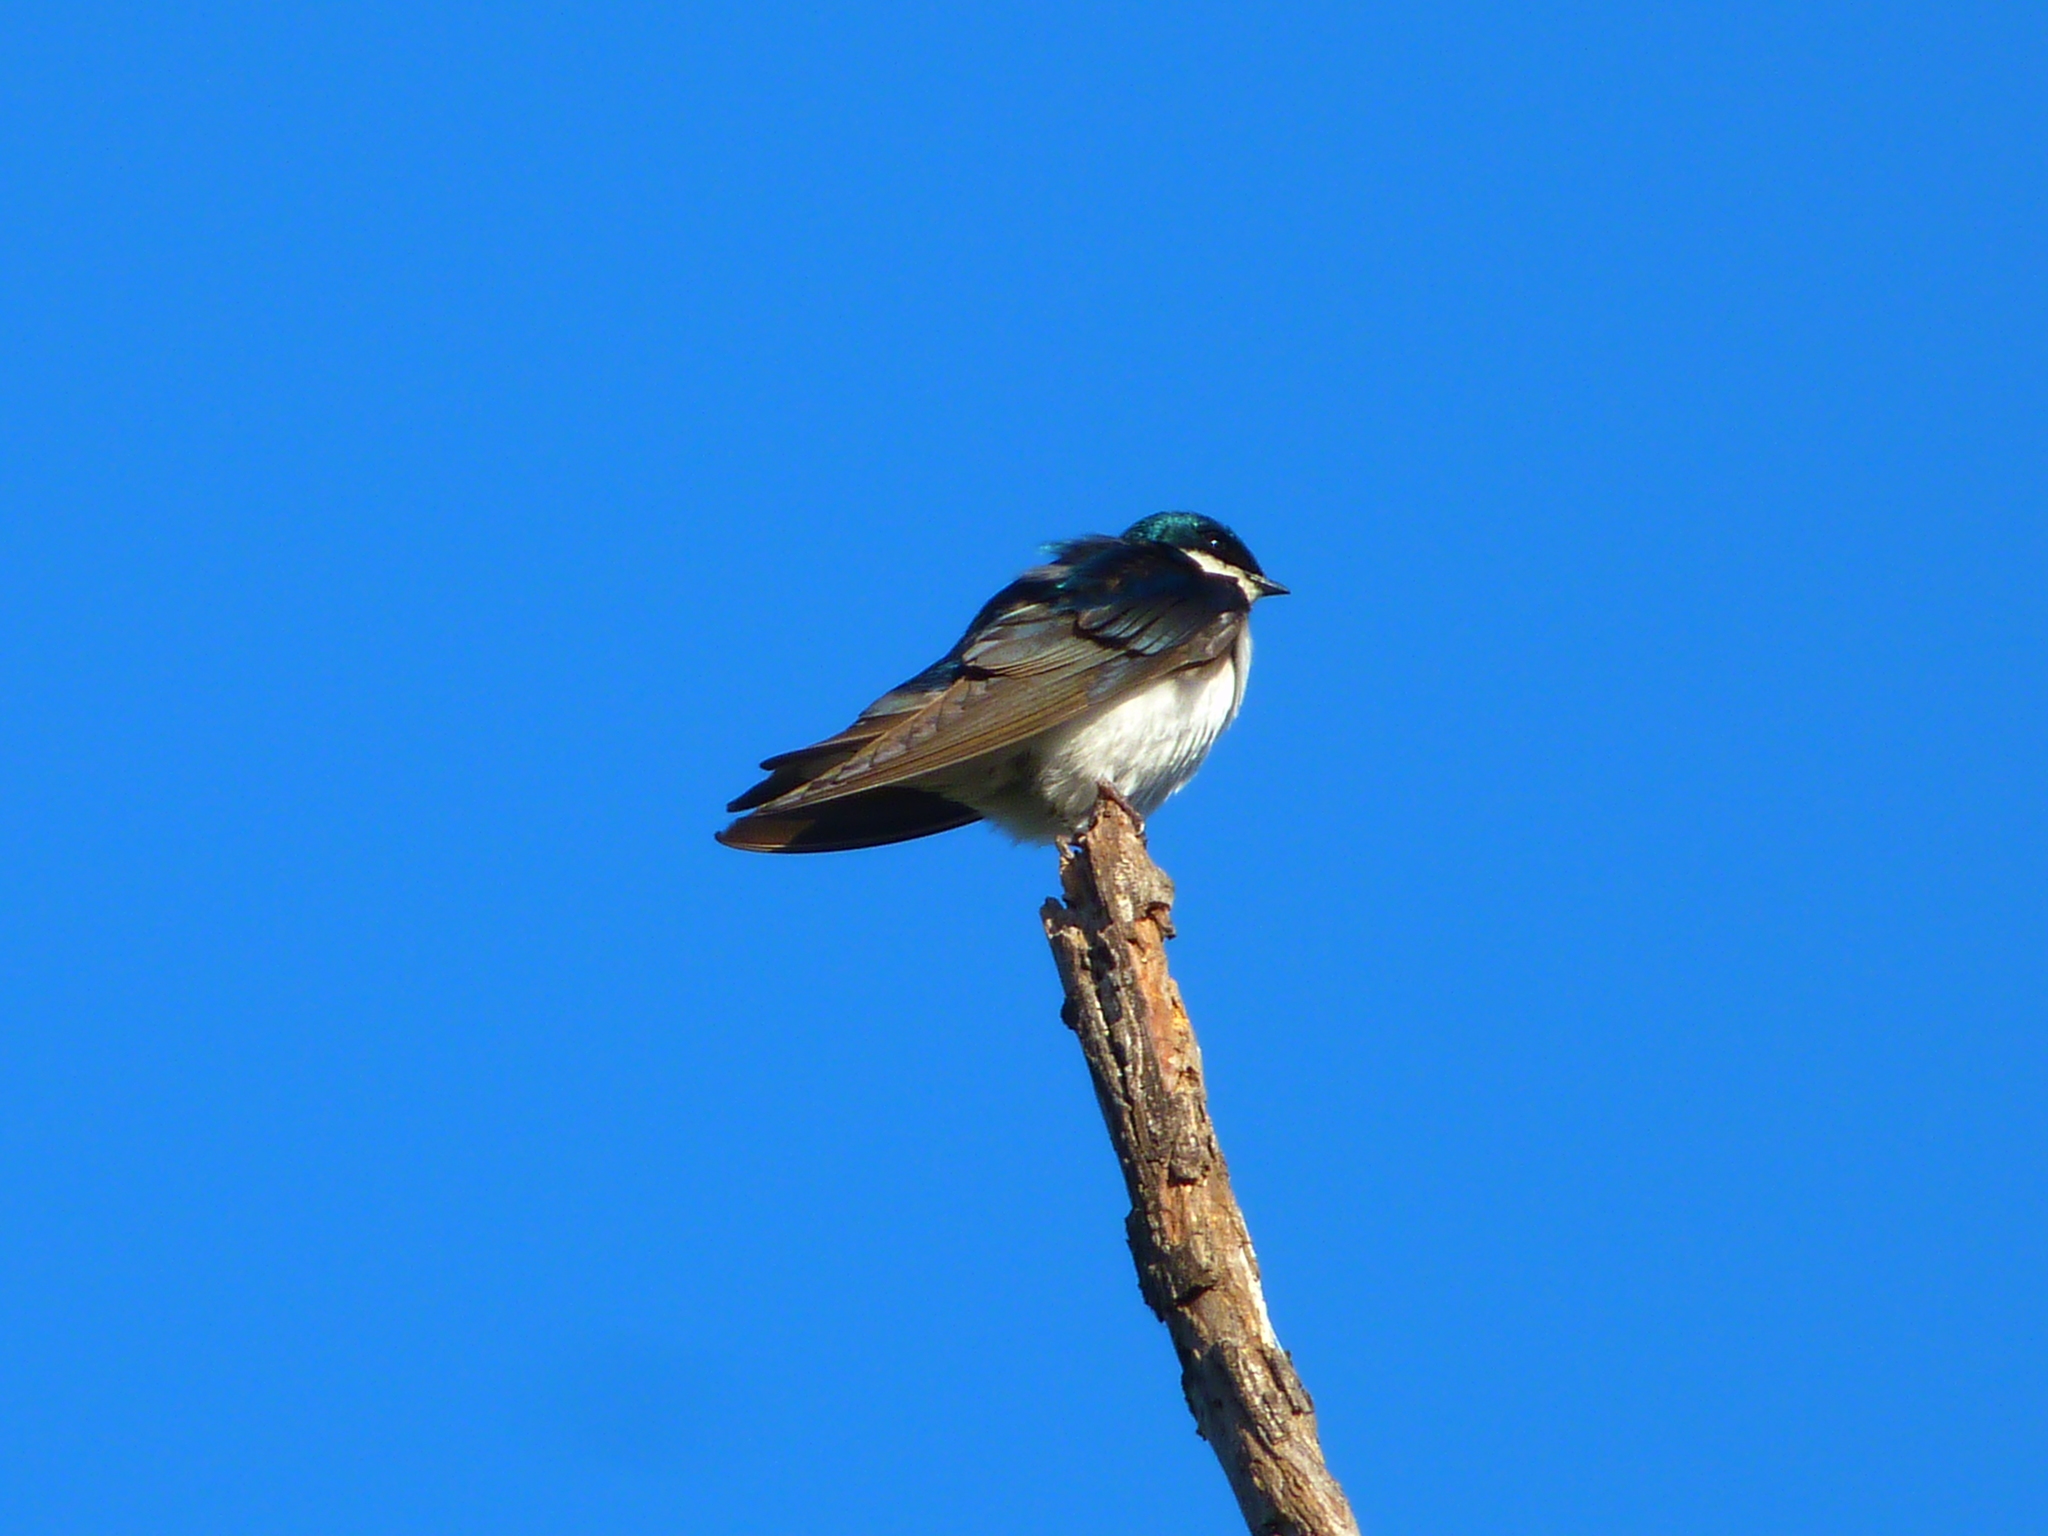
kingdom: Animalia
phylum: Chordata
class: Aves
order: Passeriformes
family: Hirundinidae
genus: Tachycineta
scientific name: Tachycineta bicolor
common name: Tree swallow
